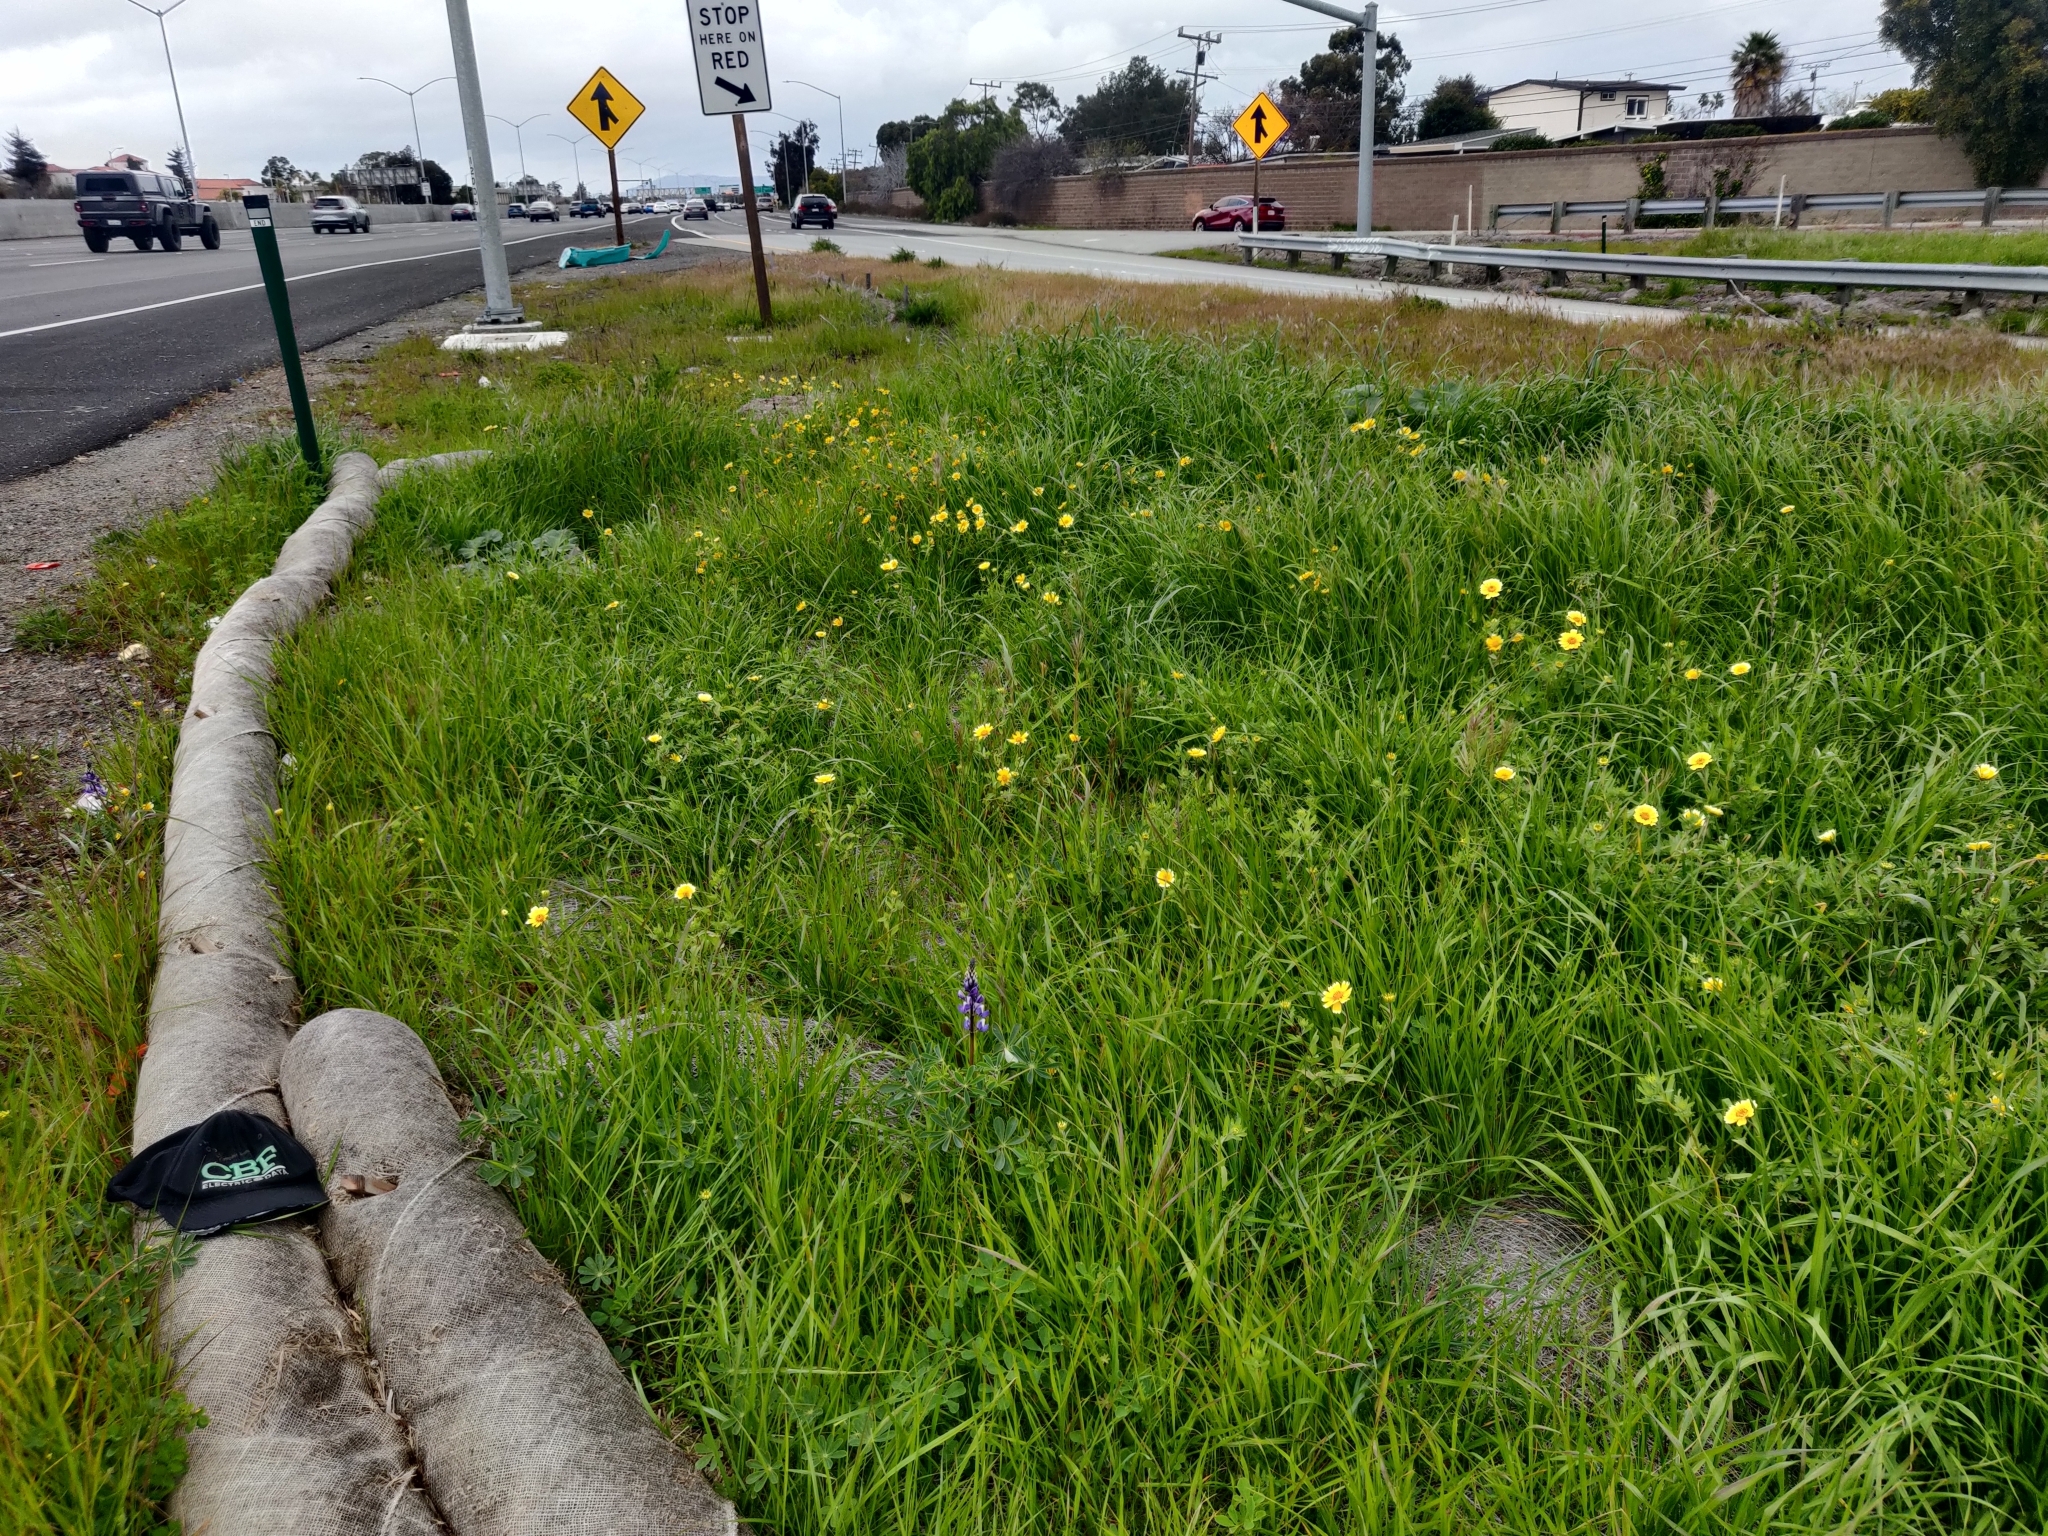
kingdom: Plantae
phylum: Tracheophyta
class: Magnoliopsida
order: Asterales
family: Asteraceae
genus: Layia
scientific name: Layia platyglossa
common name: Tidy-tips
